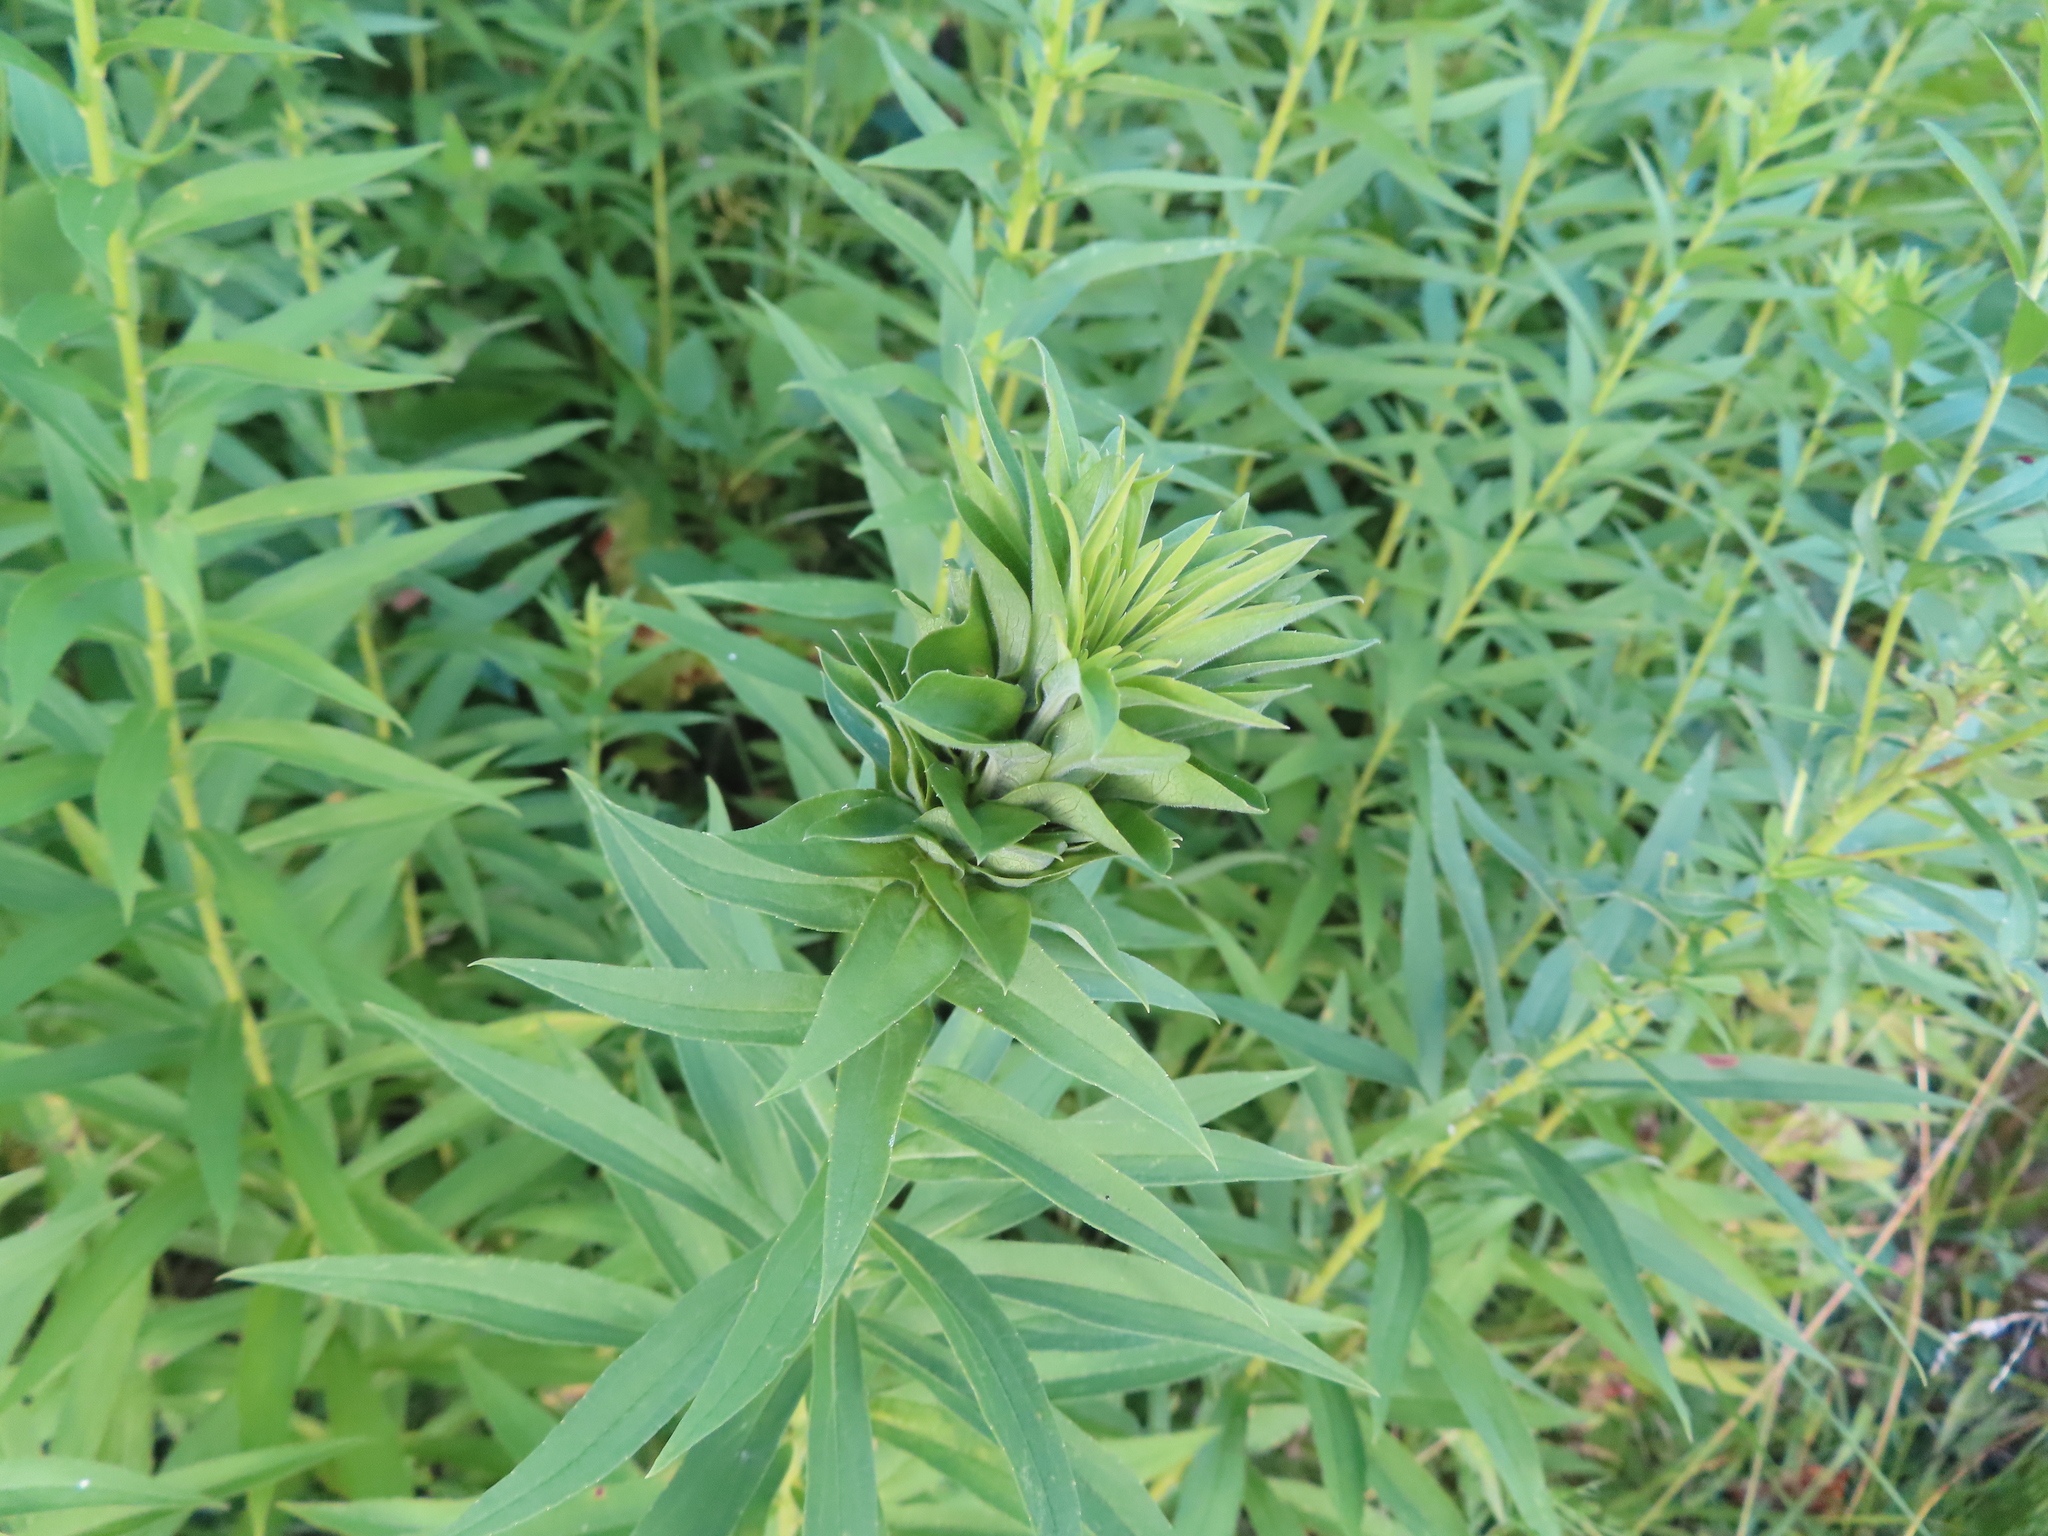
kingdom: Animalia
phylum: Arthropoda
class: Insecta
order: Diptera
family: Cecidomyiidae
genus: Rhopalomyia
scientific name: Rhopalomyia solidaginis
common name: Goldenrod bunch gall midge
